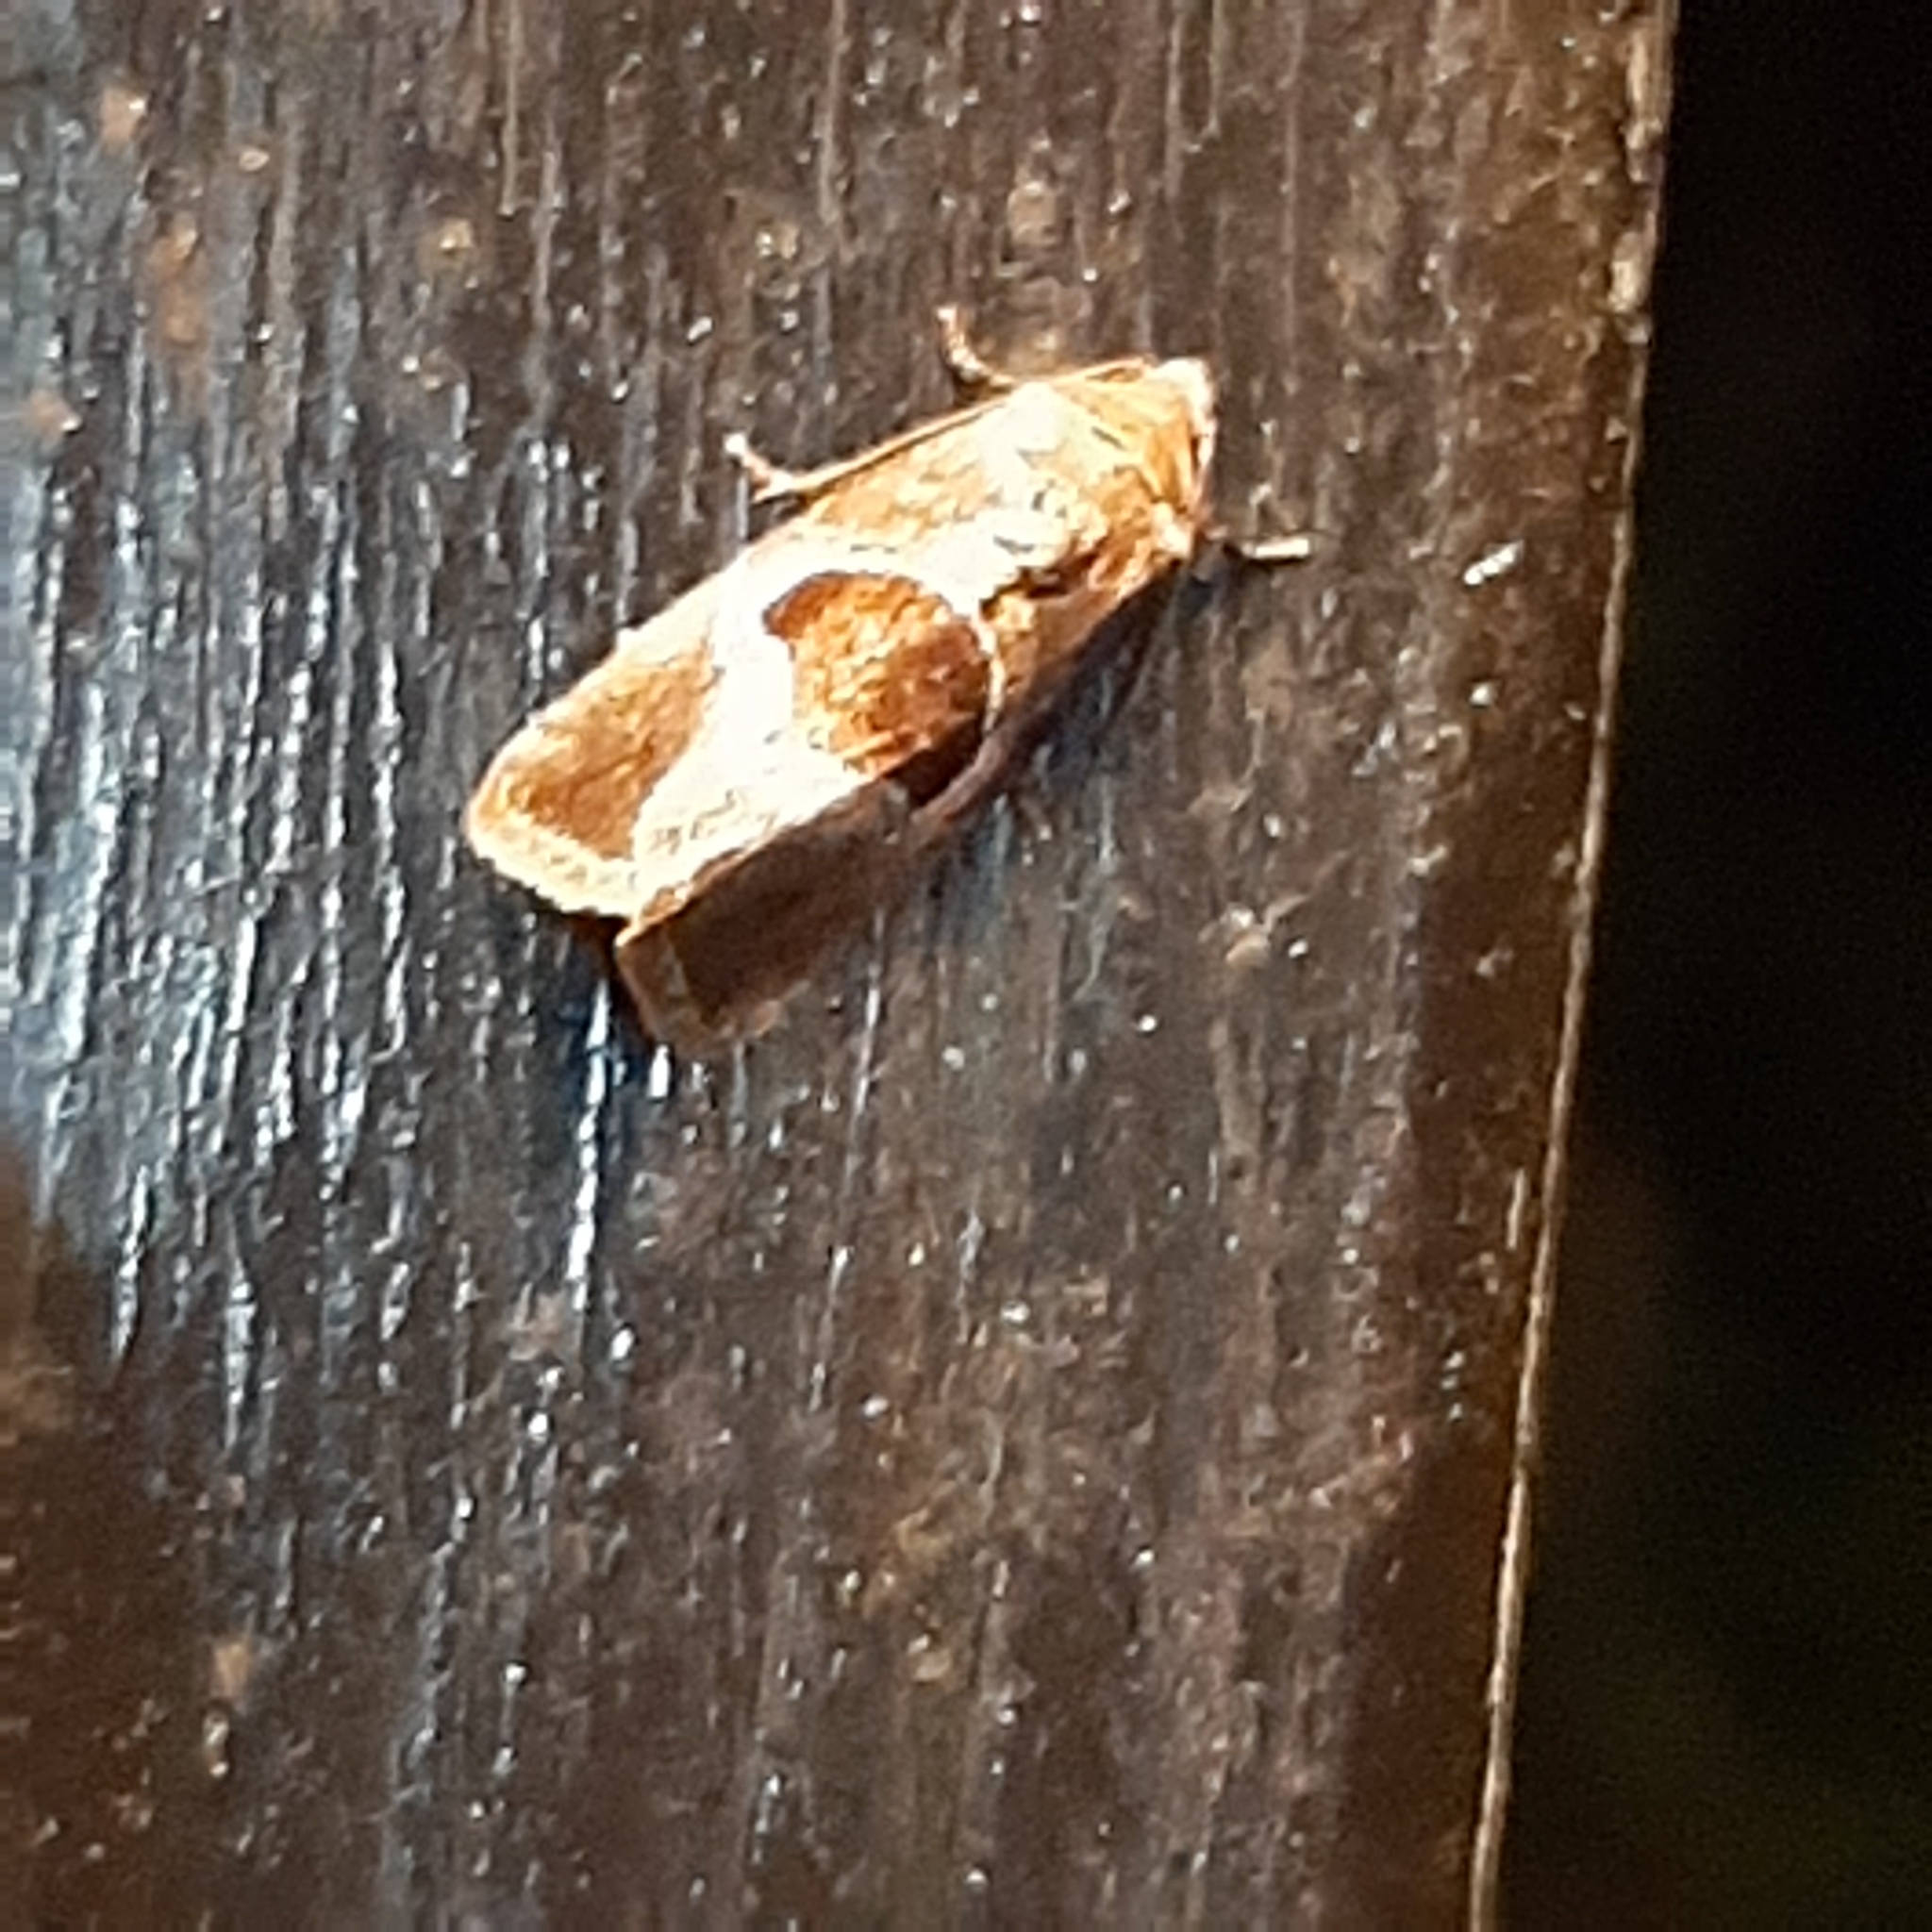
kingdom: Animalia
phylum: Arthropoda
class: Insecta
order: Lepidoptera
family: Noctuidae
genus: Elaphria
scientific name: Elaphria deltoides
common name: Cutworm moth
